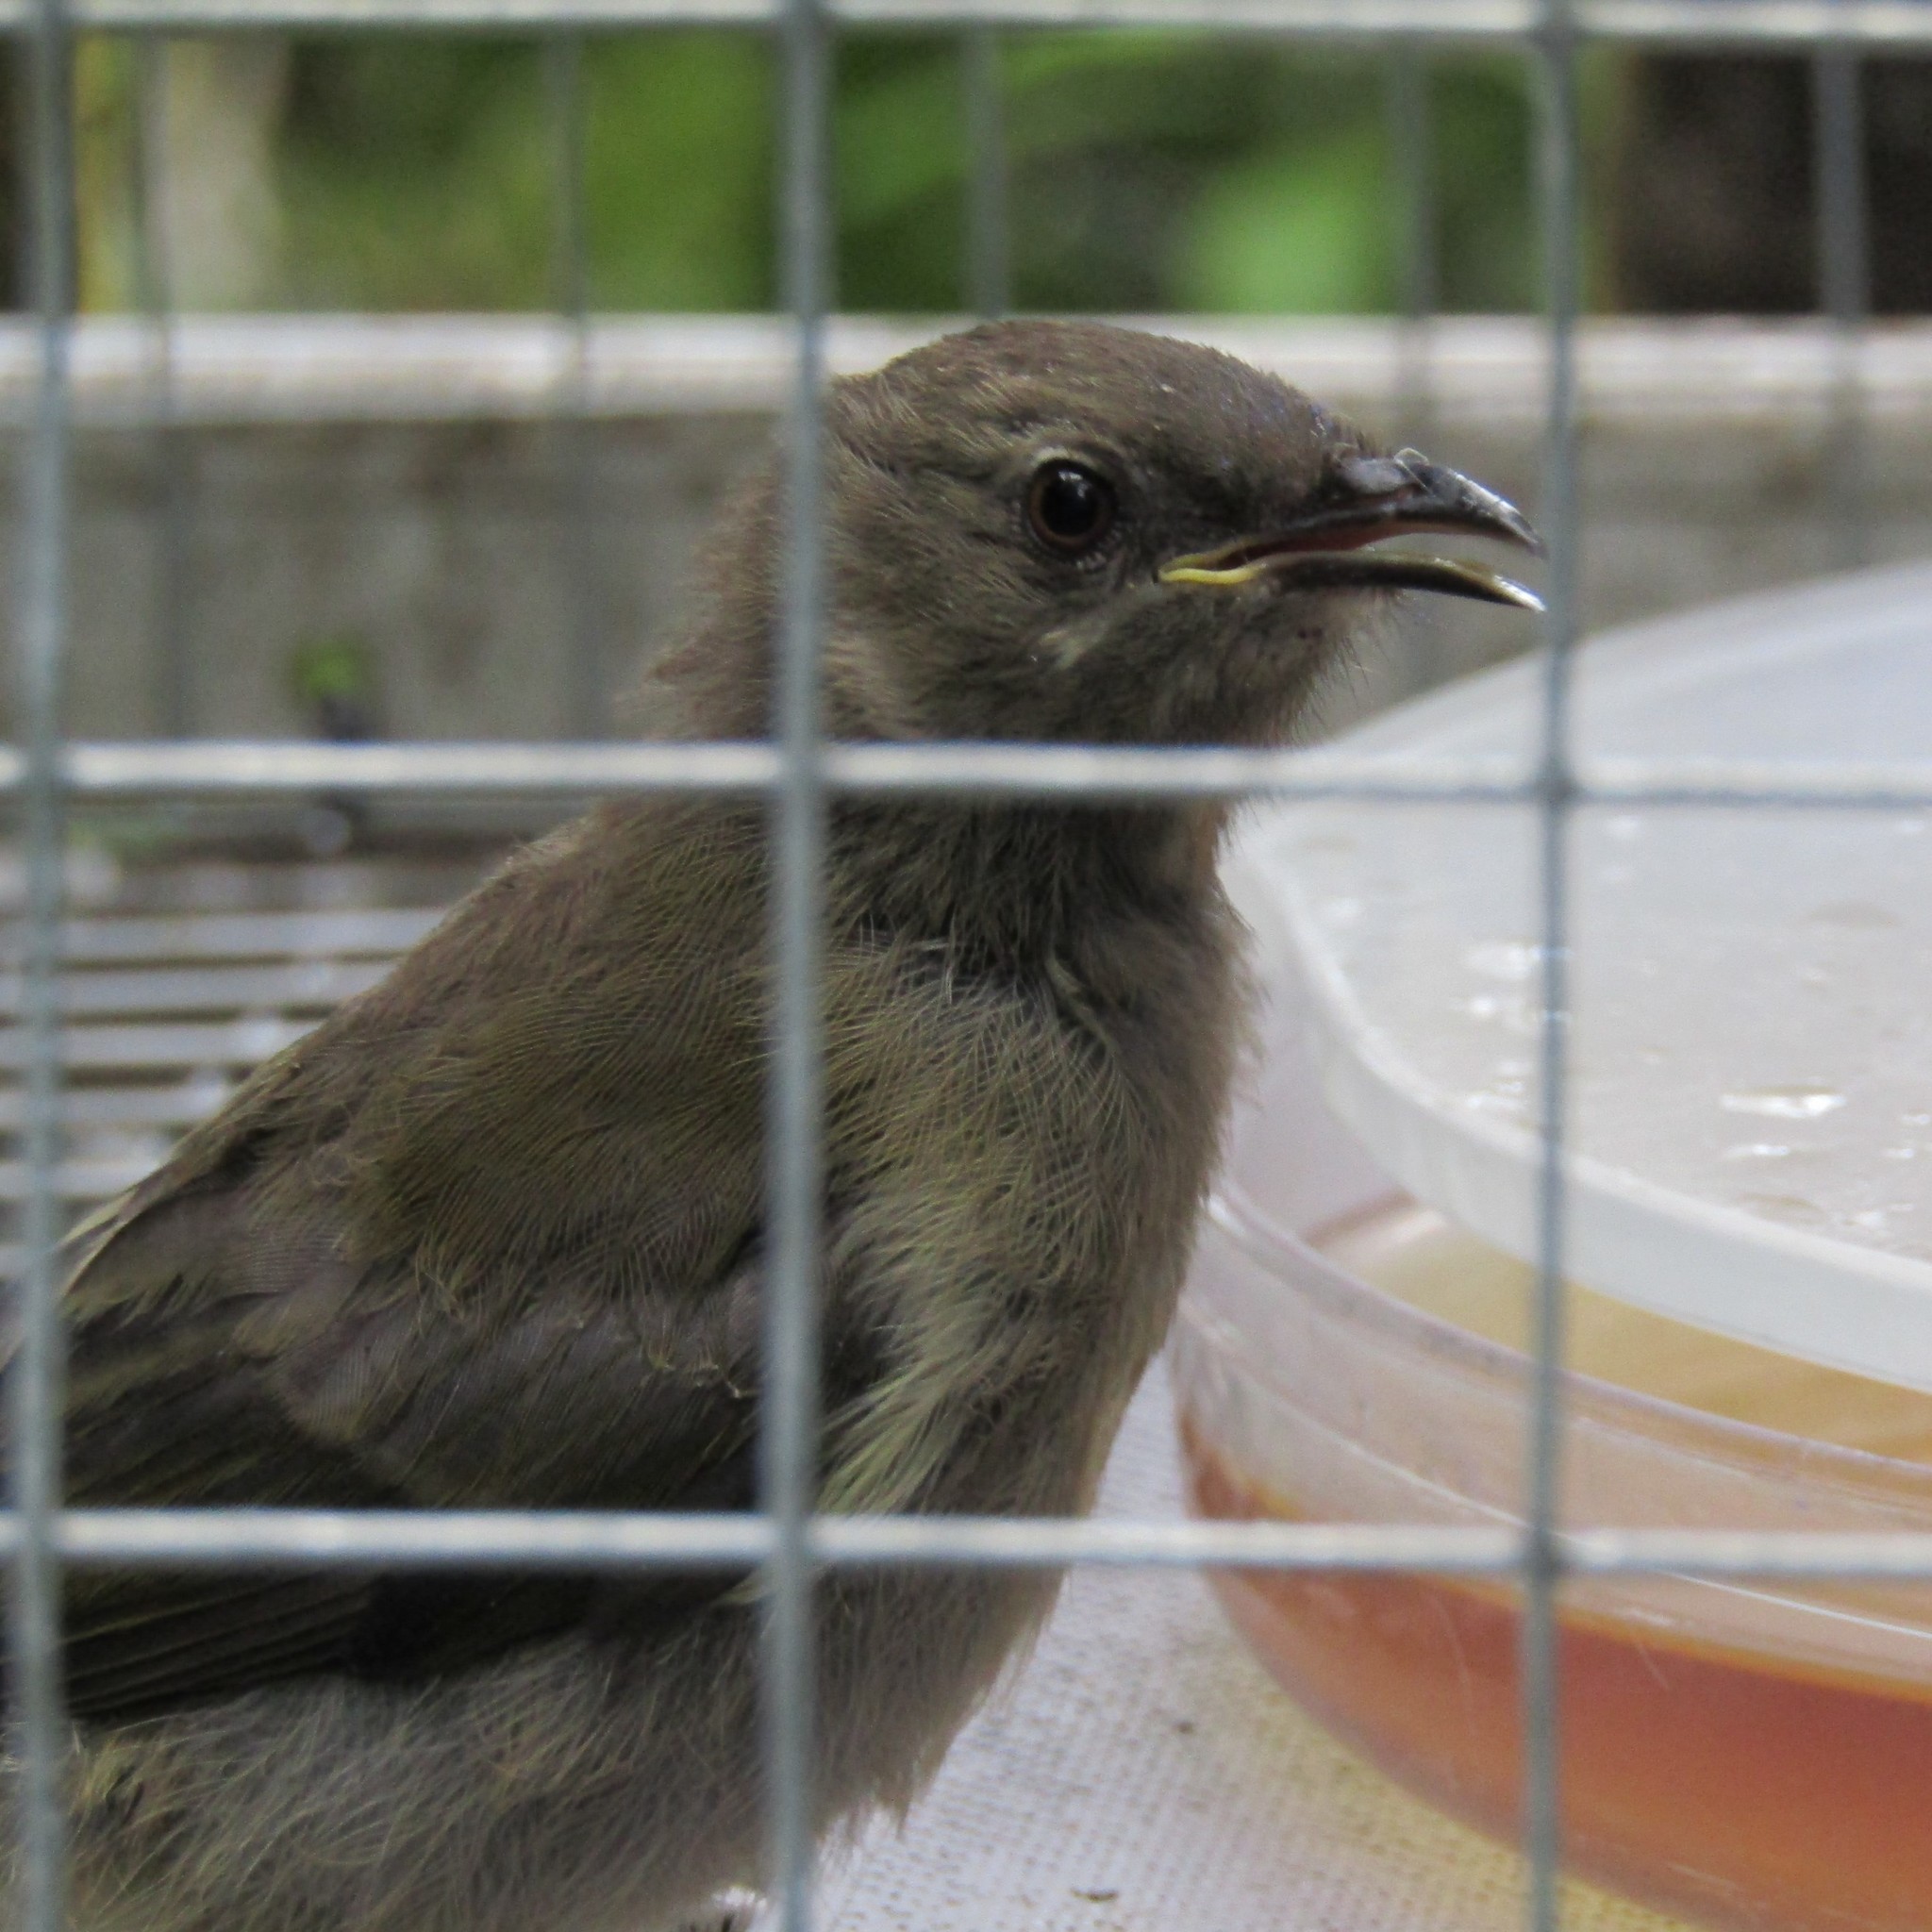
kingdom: Animalia
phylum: Chordata
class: Aves
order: Passeriformes
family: Meliphagidae
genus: Anthornis
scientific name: Anthornis melanura
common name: New zealand bellbird
